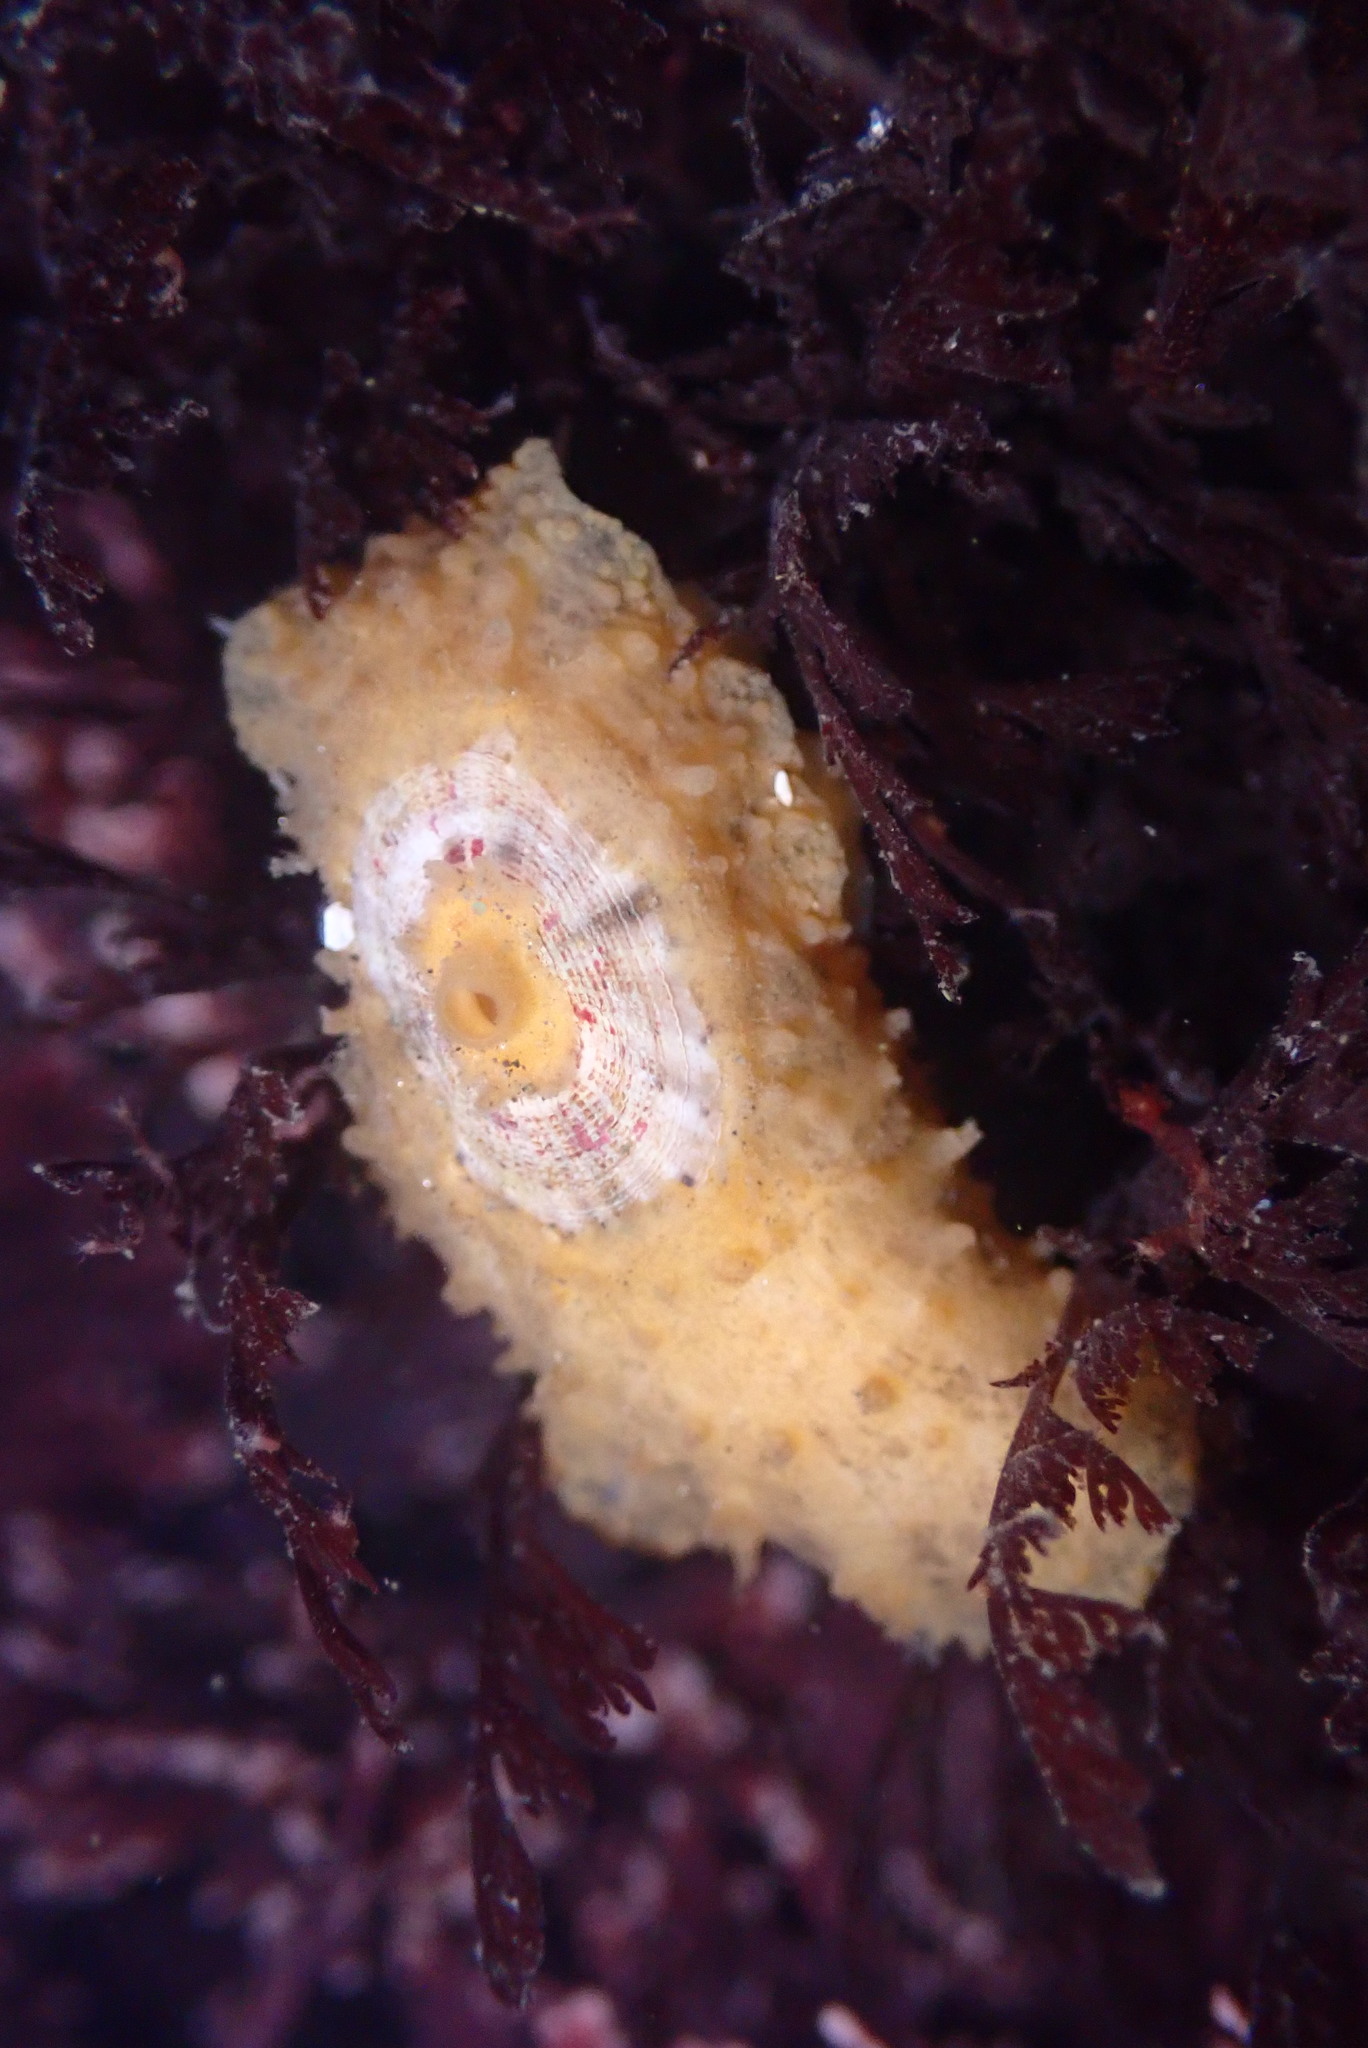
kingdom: Animalia
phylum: Mollusca
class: Gastropoda
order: Lepetellida
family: Fissurellidae
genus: Fissurellidea
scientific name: Fissurellidea bimaculata
